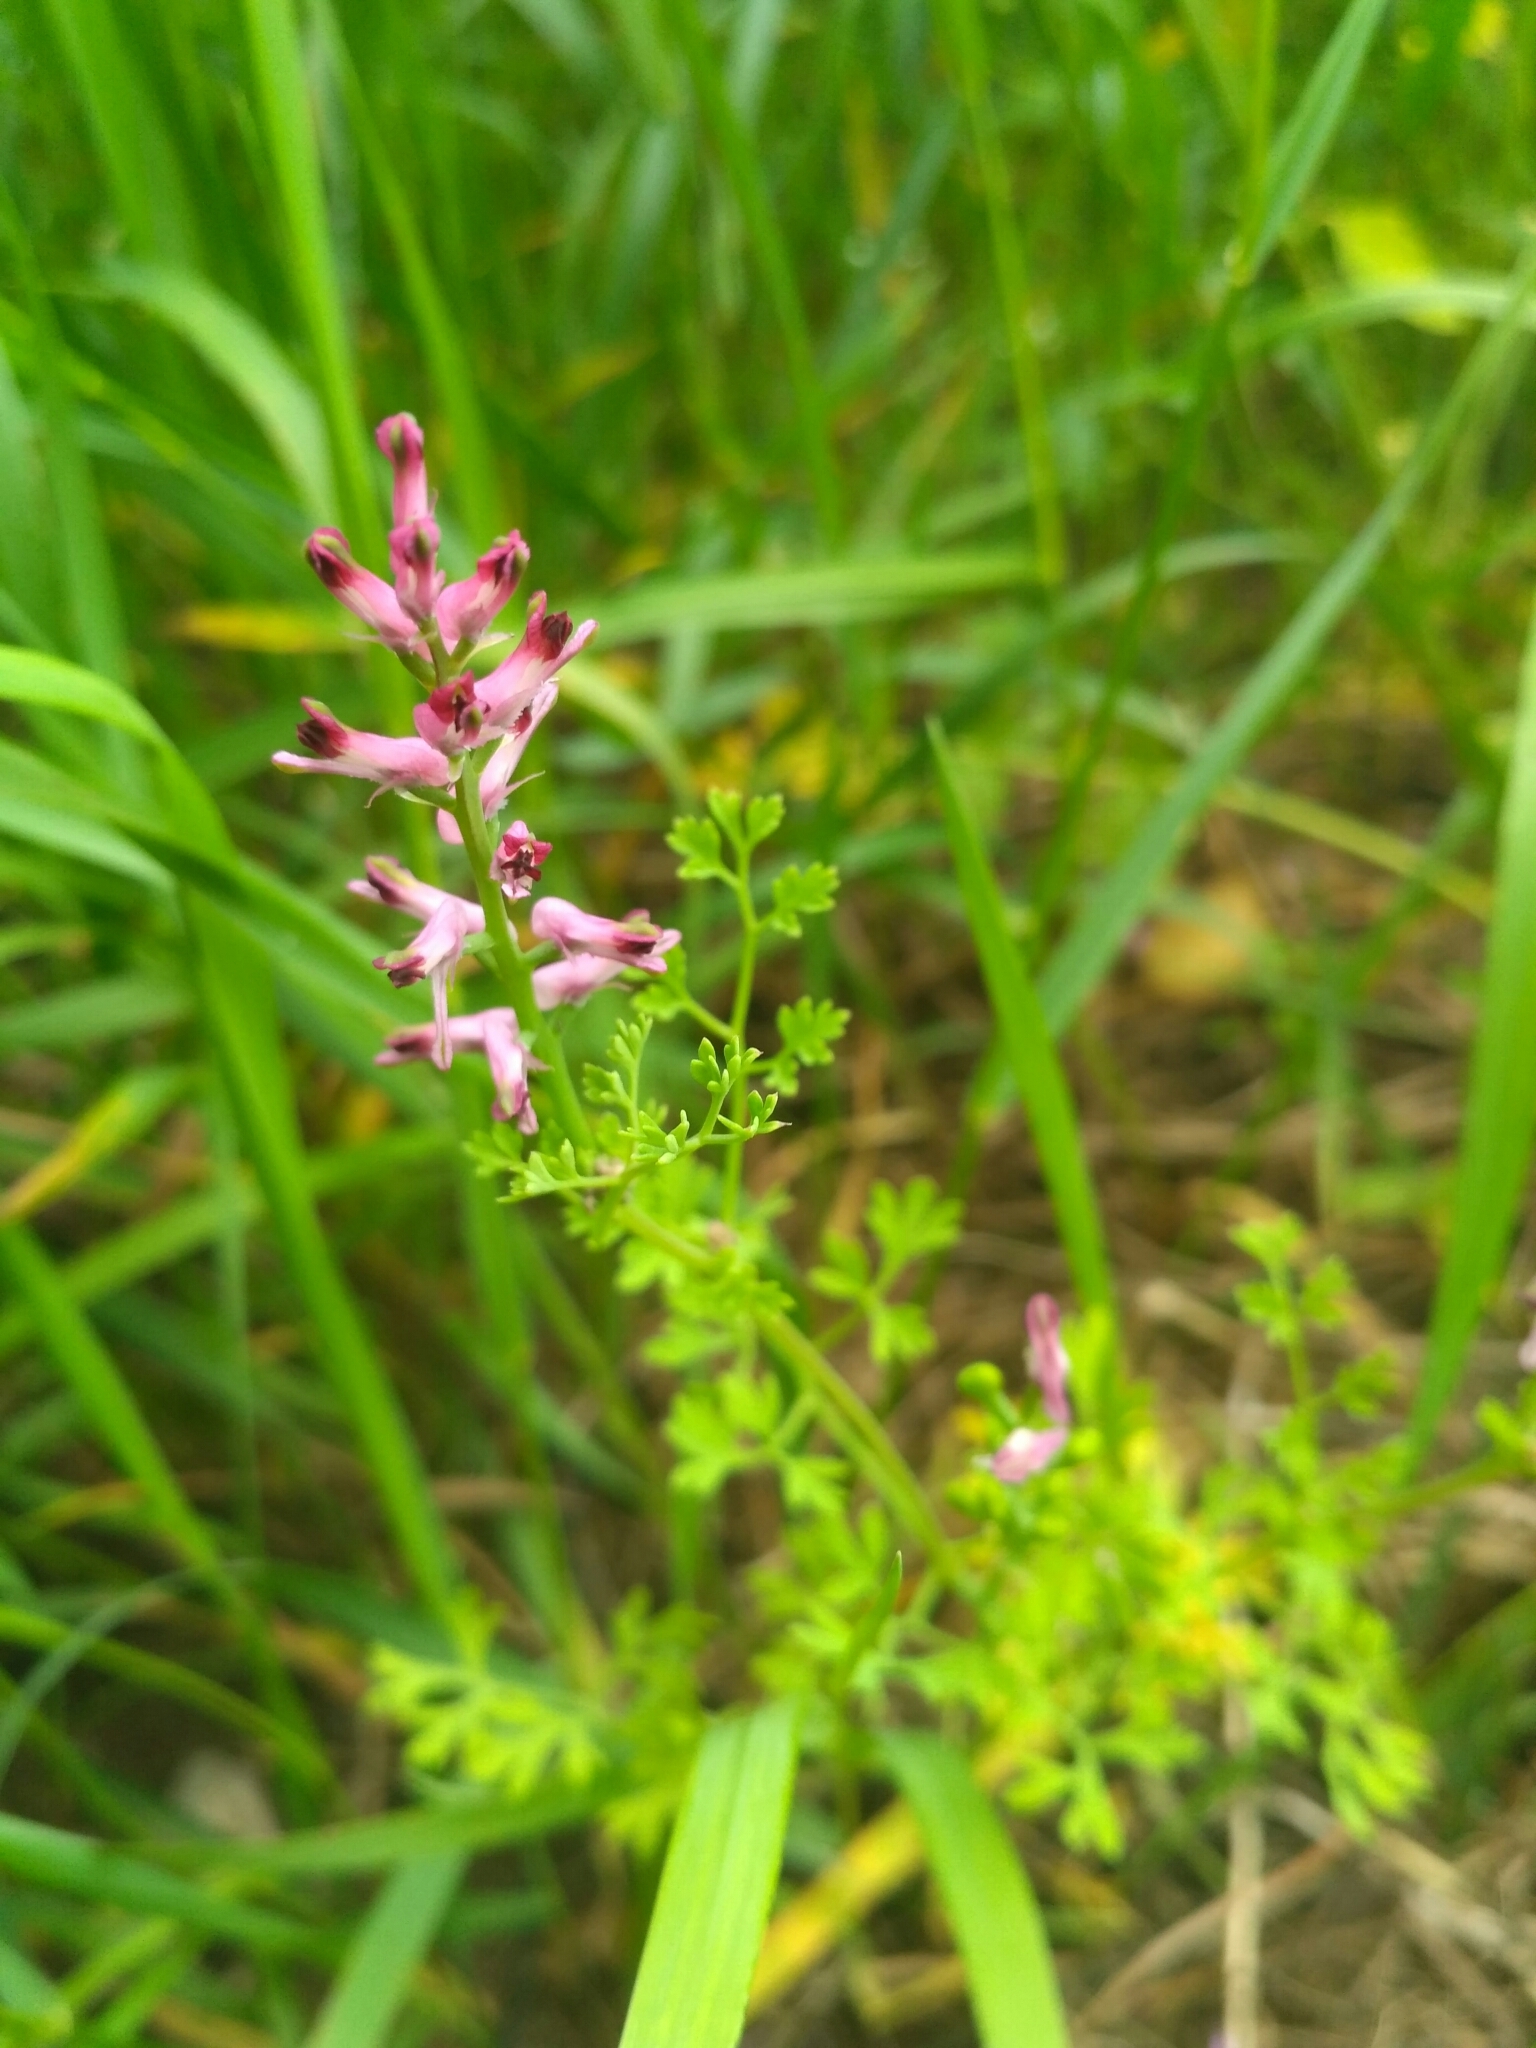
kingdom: Plantae
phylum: Tracheophyta
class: Magnoliopsida
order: Ranunculales
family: Papaveraceae
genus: Fumaria
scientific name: Fumaria officinalis
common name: Common fumitory
